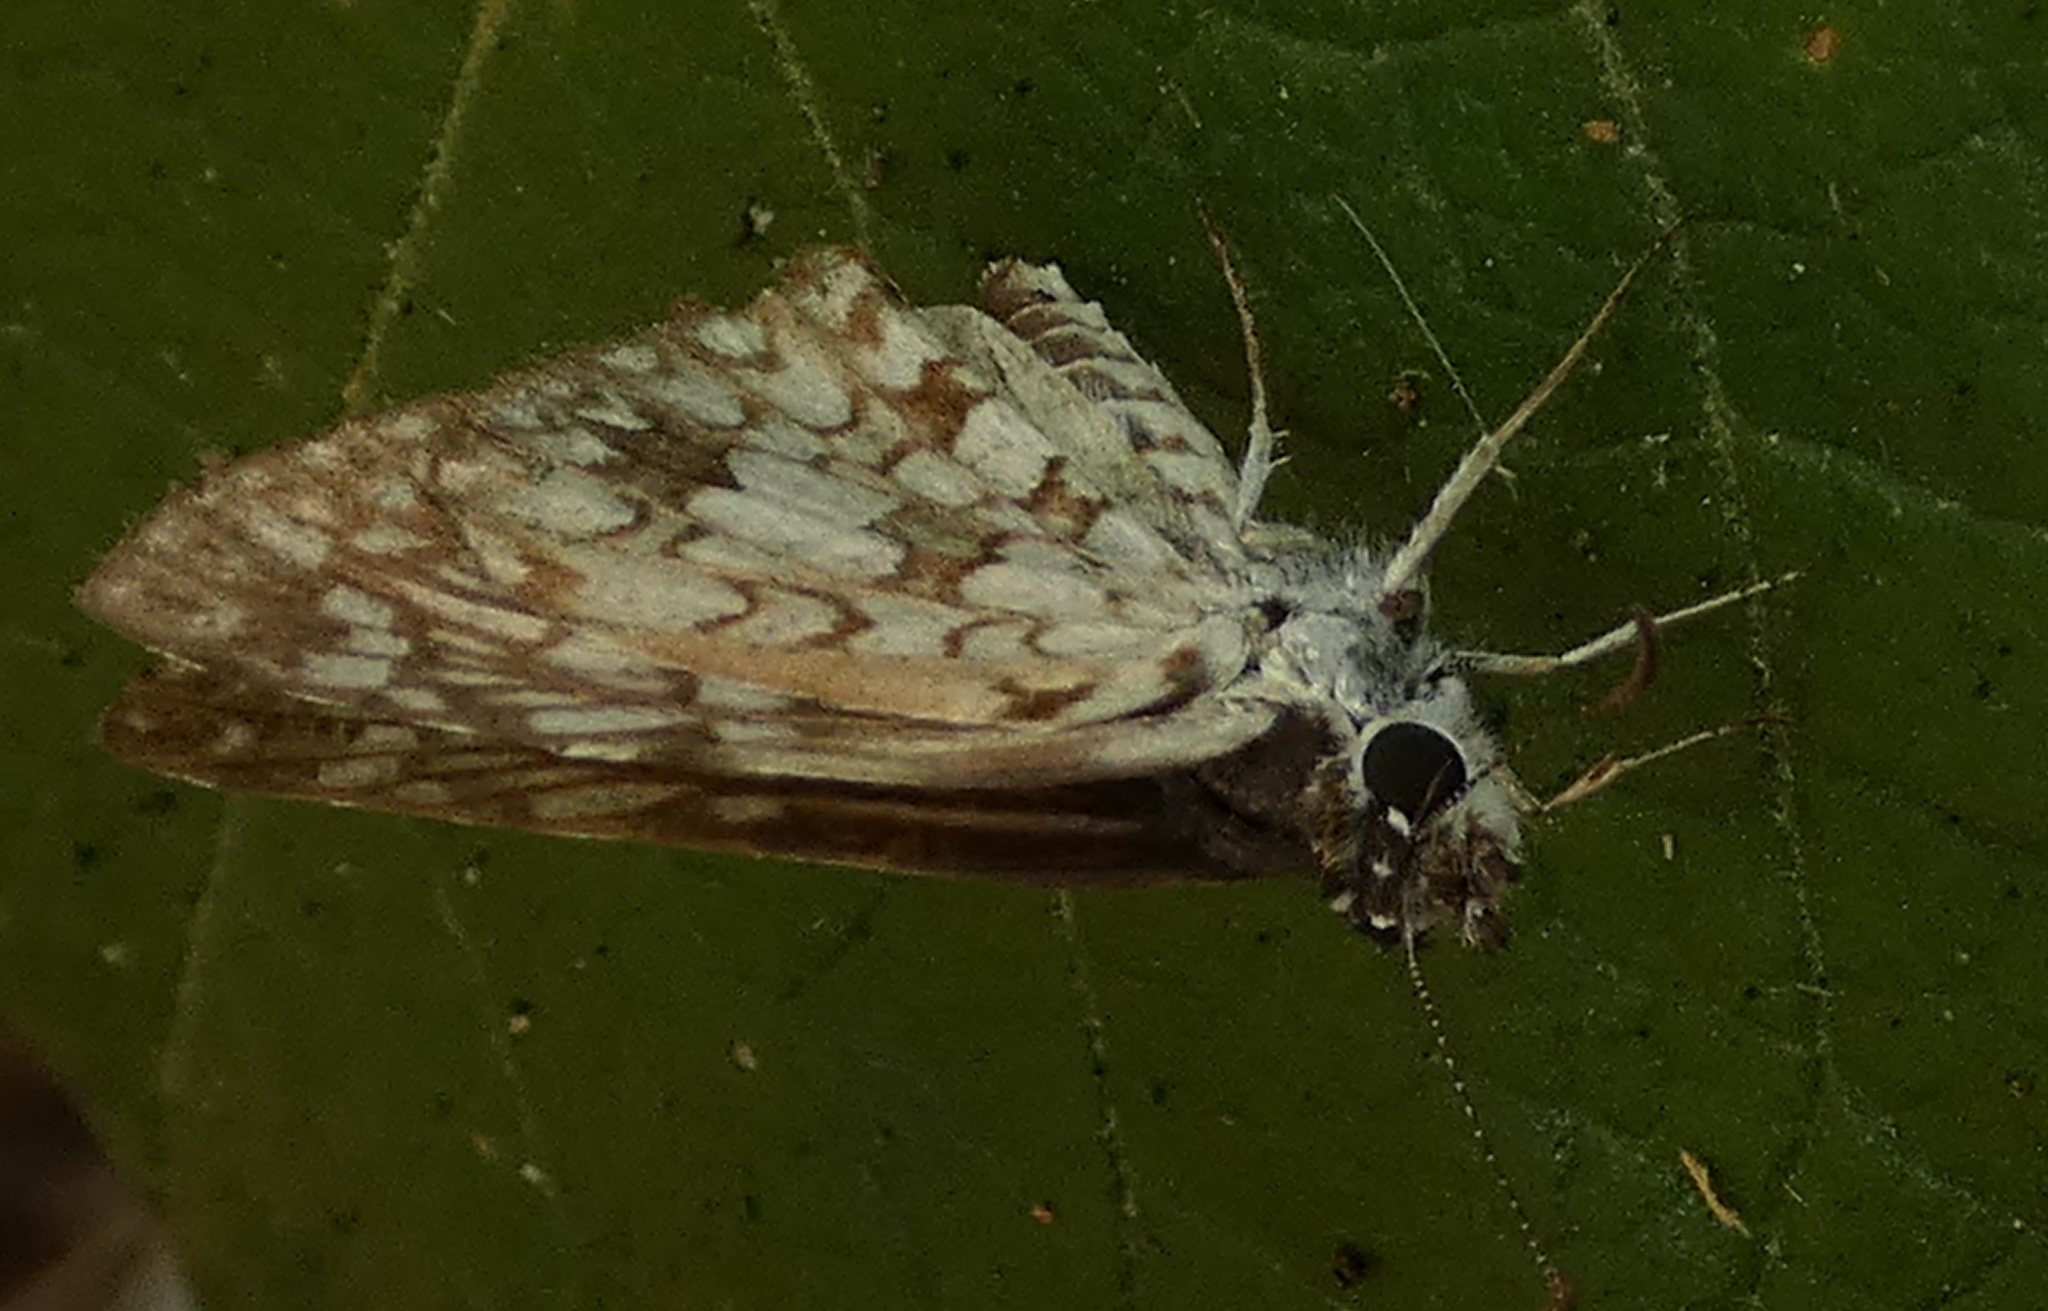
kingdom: Animalia
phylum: Arthropoda
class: Insecta
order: Lepidoptera
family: Hesperiidae
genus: Pyrgus
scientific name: Pyrgus oileus
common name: Tropical checkered-skipper
